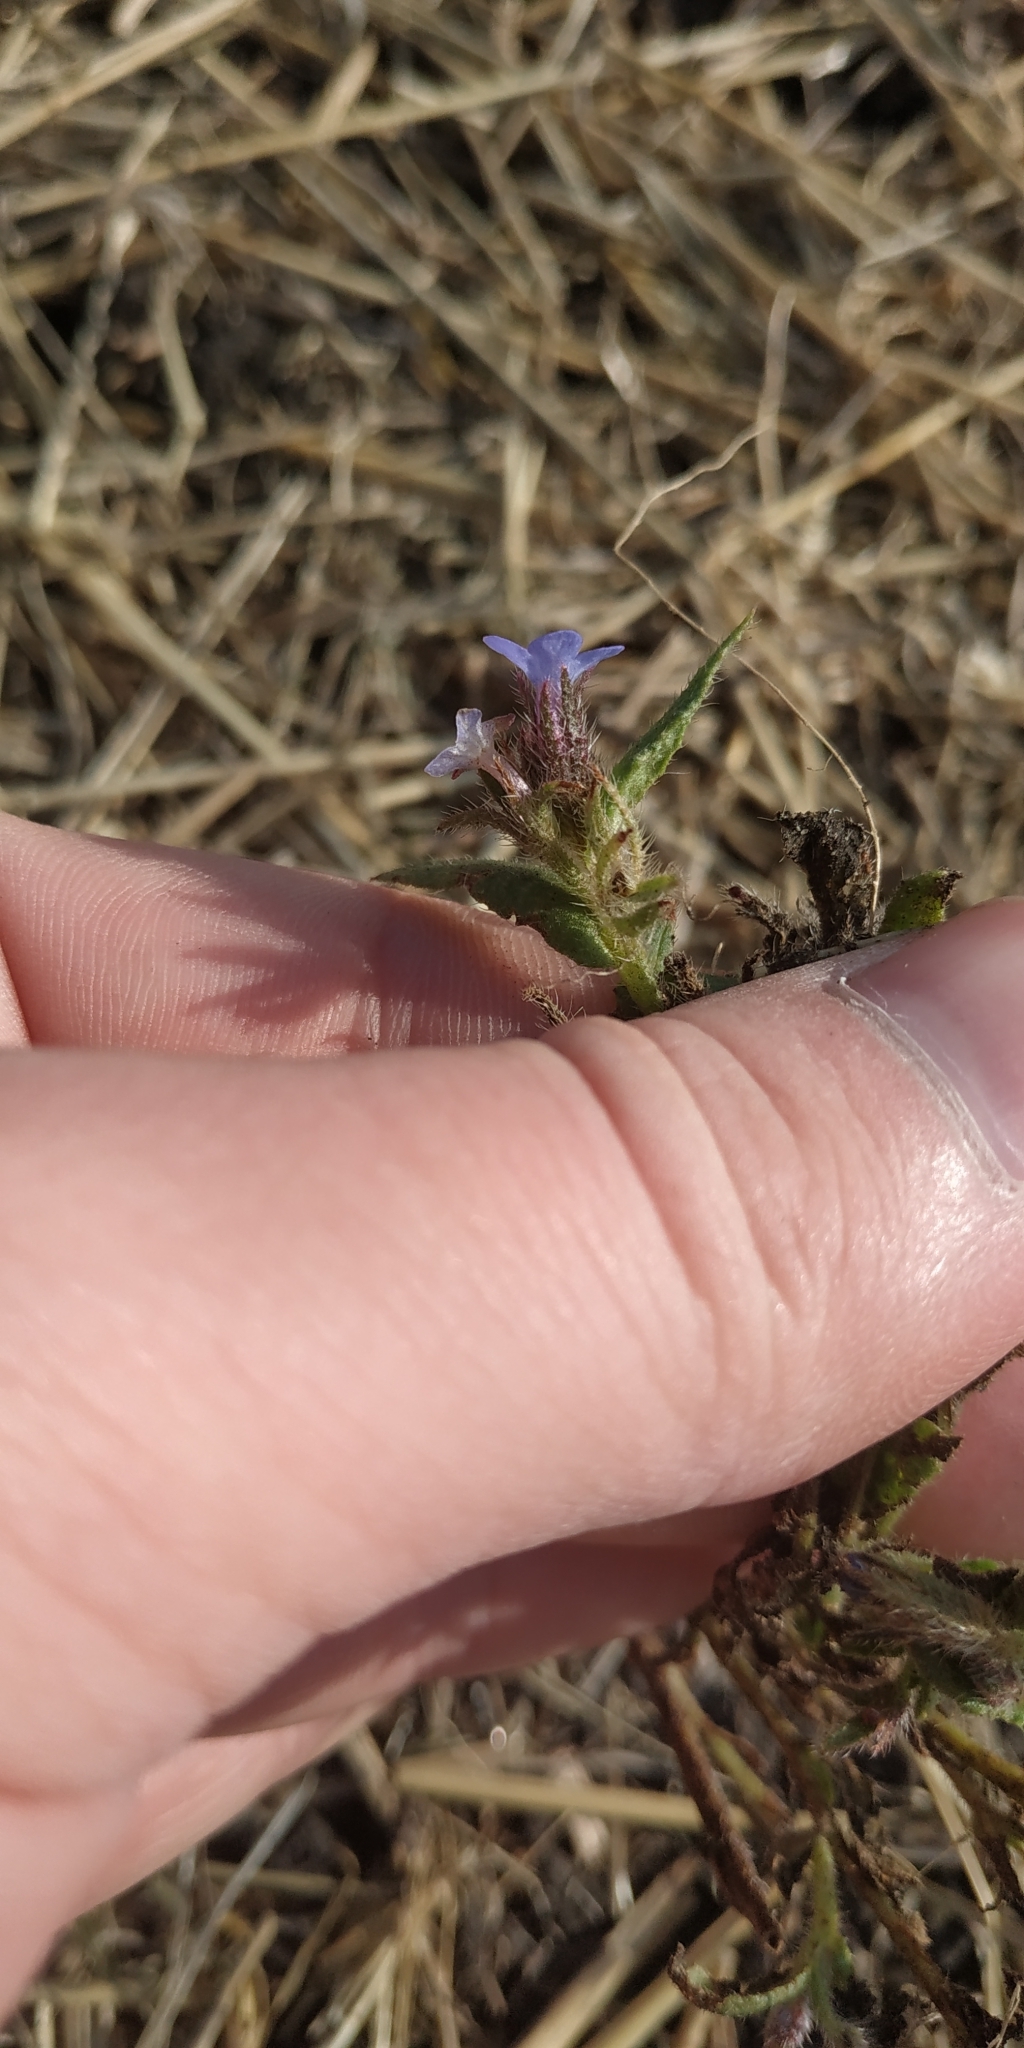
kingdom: Plantae
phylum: Tracheophyta
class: Magnoliopsida
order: Boraginales
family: Boraginaceae
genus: Lycopsis
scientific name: Lycopsis arvensis
